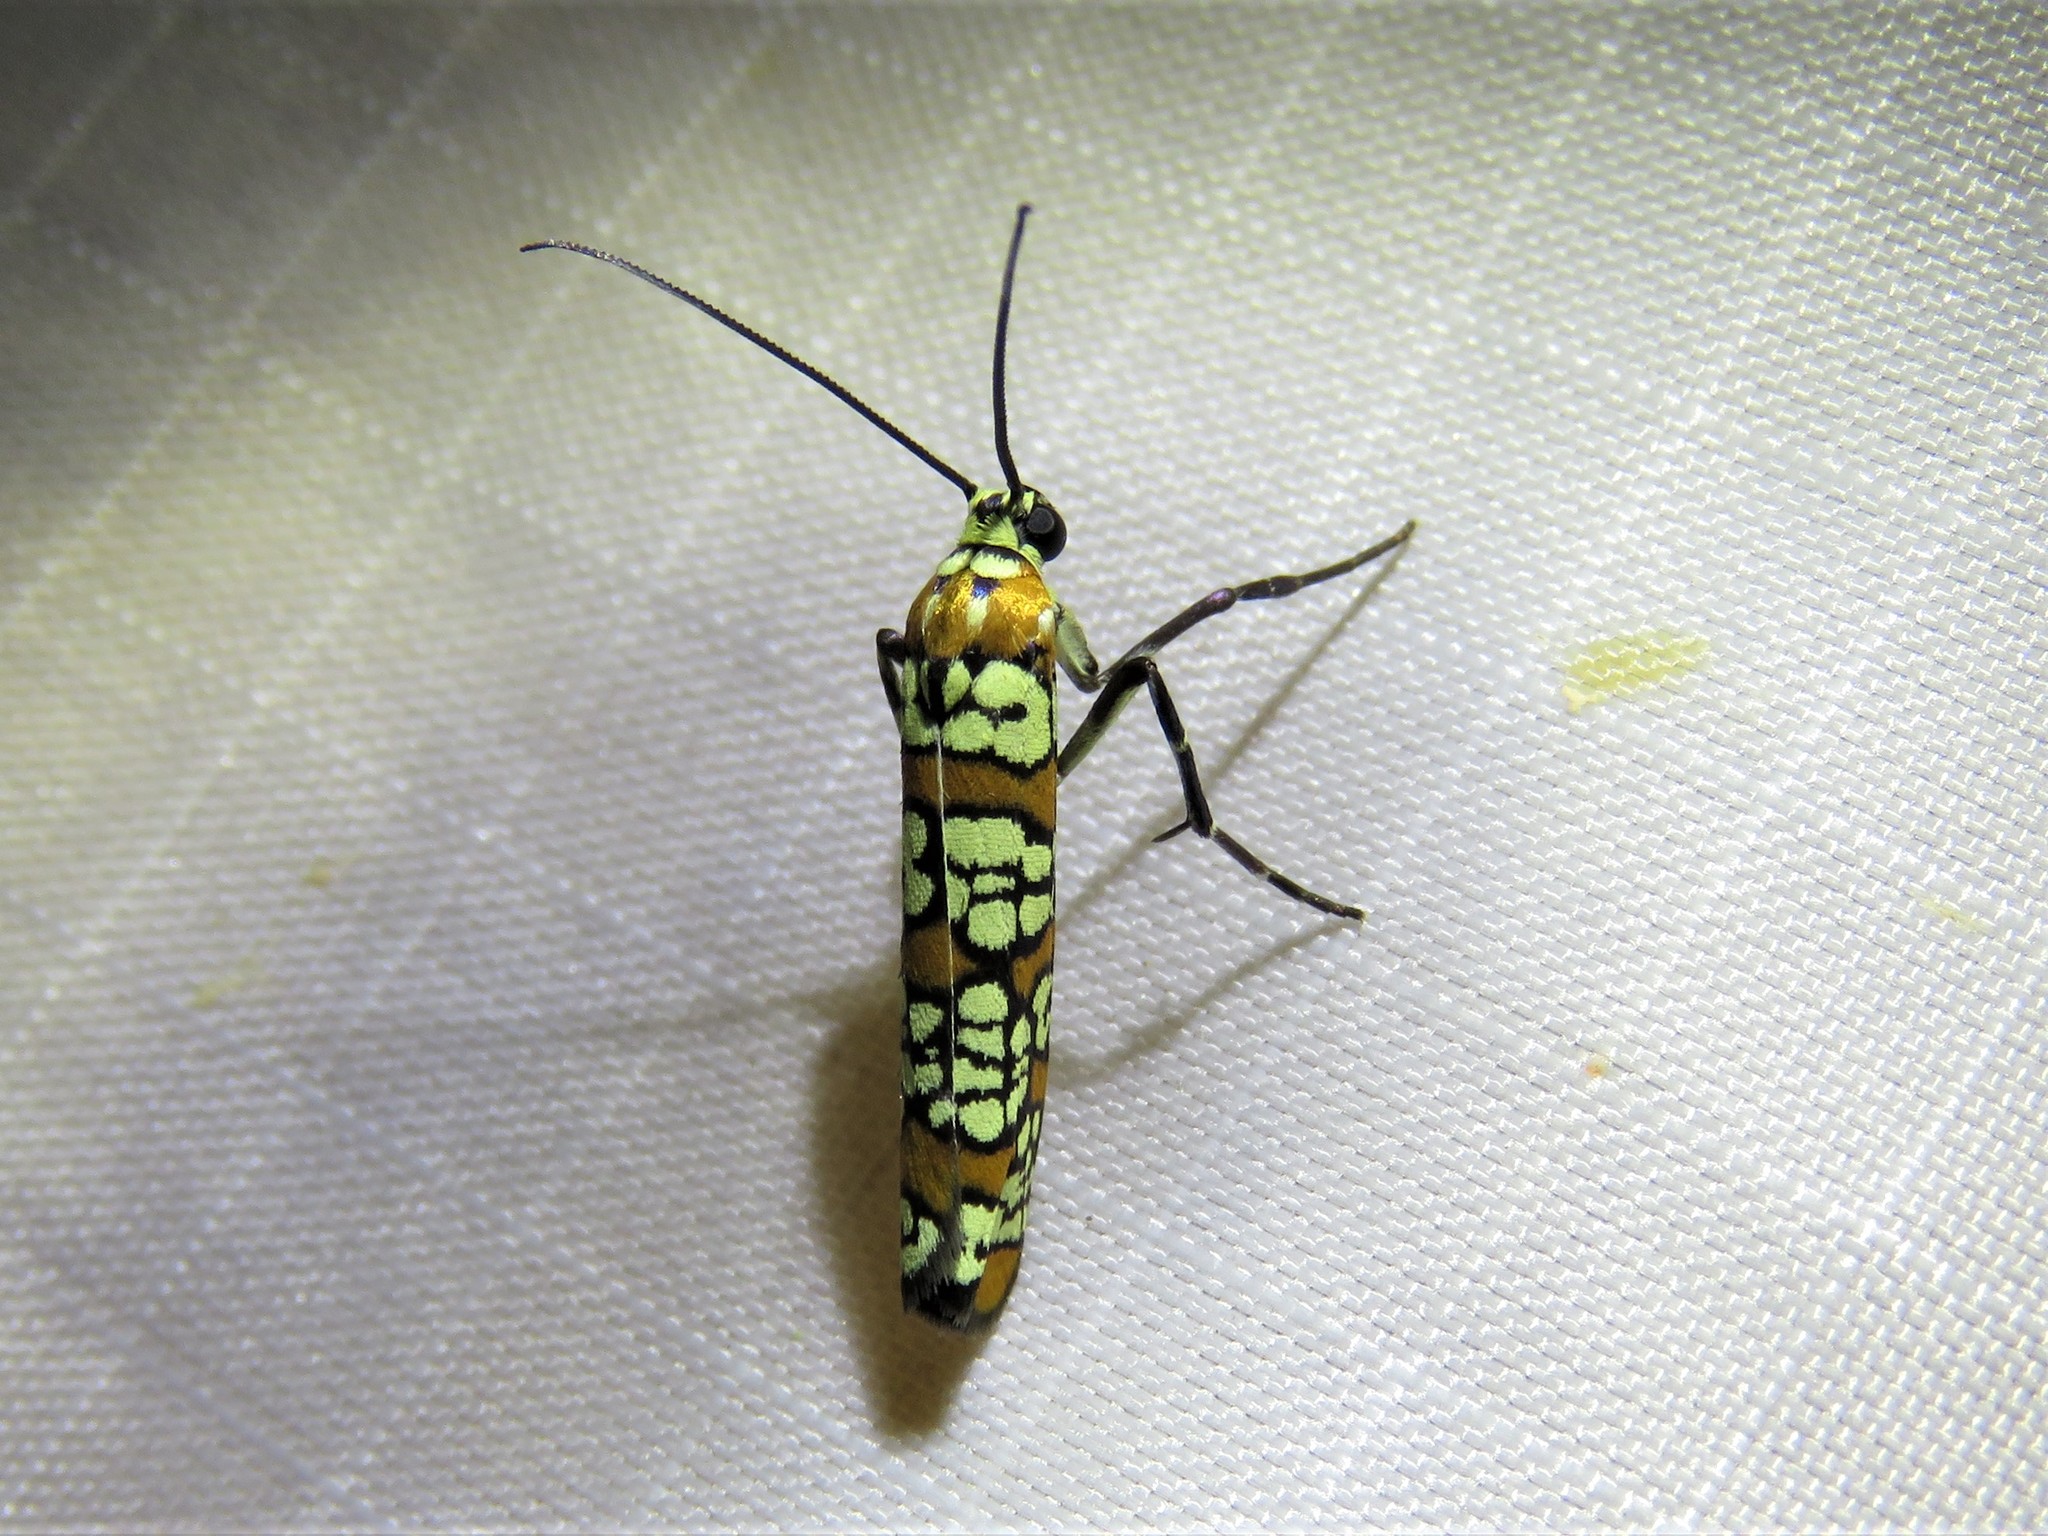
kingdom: Animalia
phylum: Arthropoda
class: Insecta
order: Lepidoptera
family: Attevidae
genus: Atteva
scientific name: Atteva punctella
